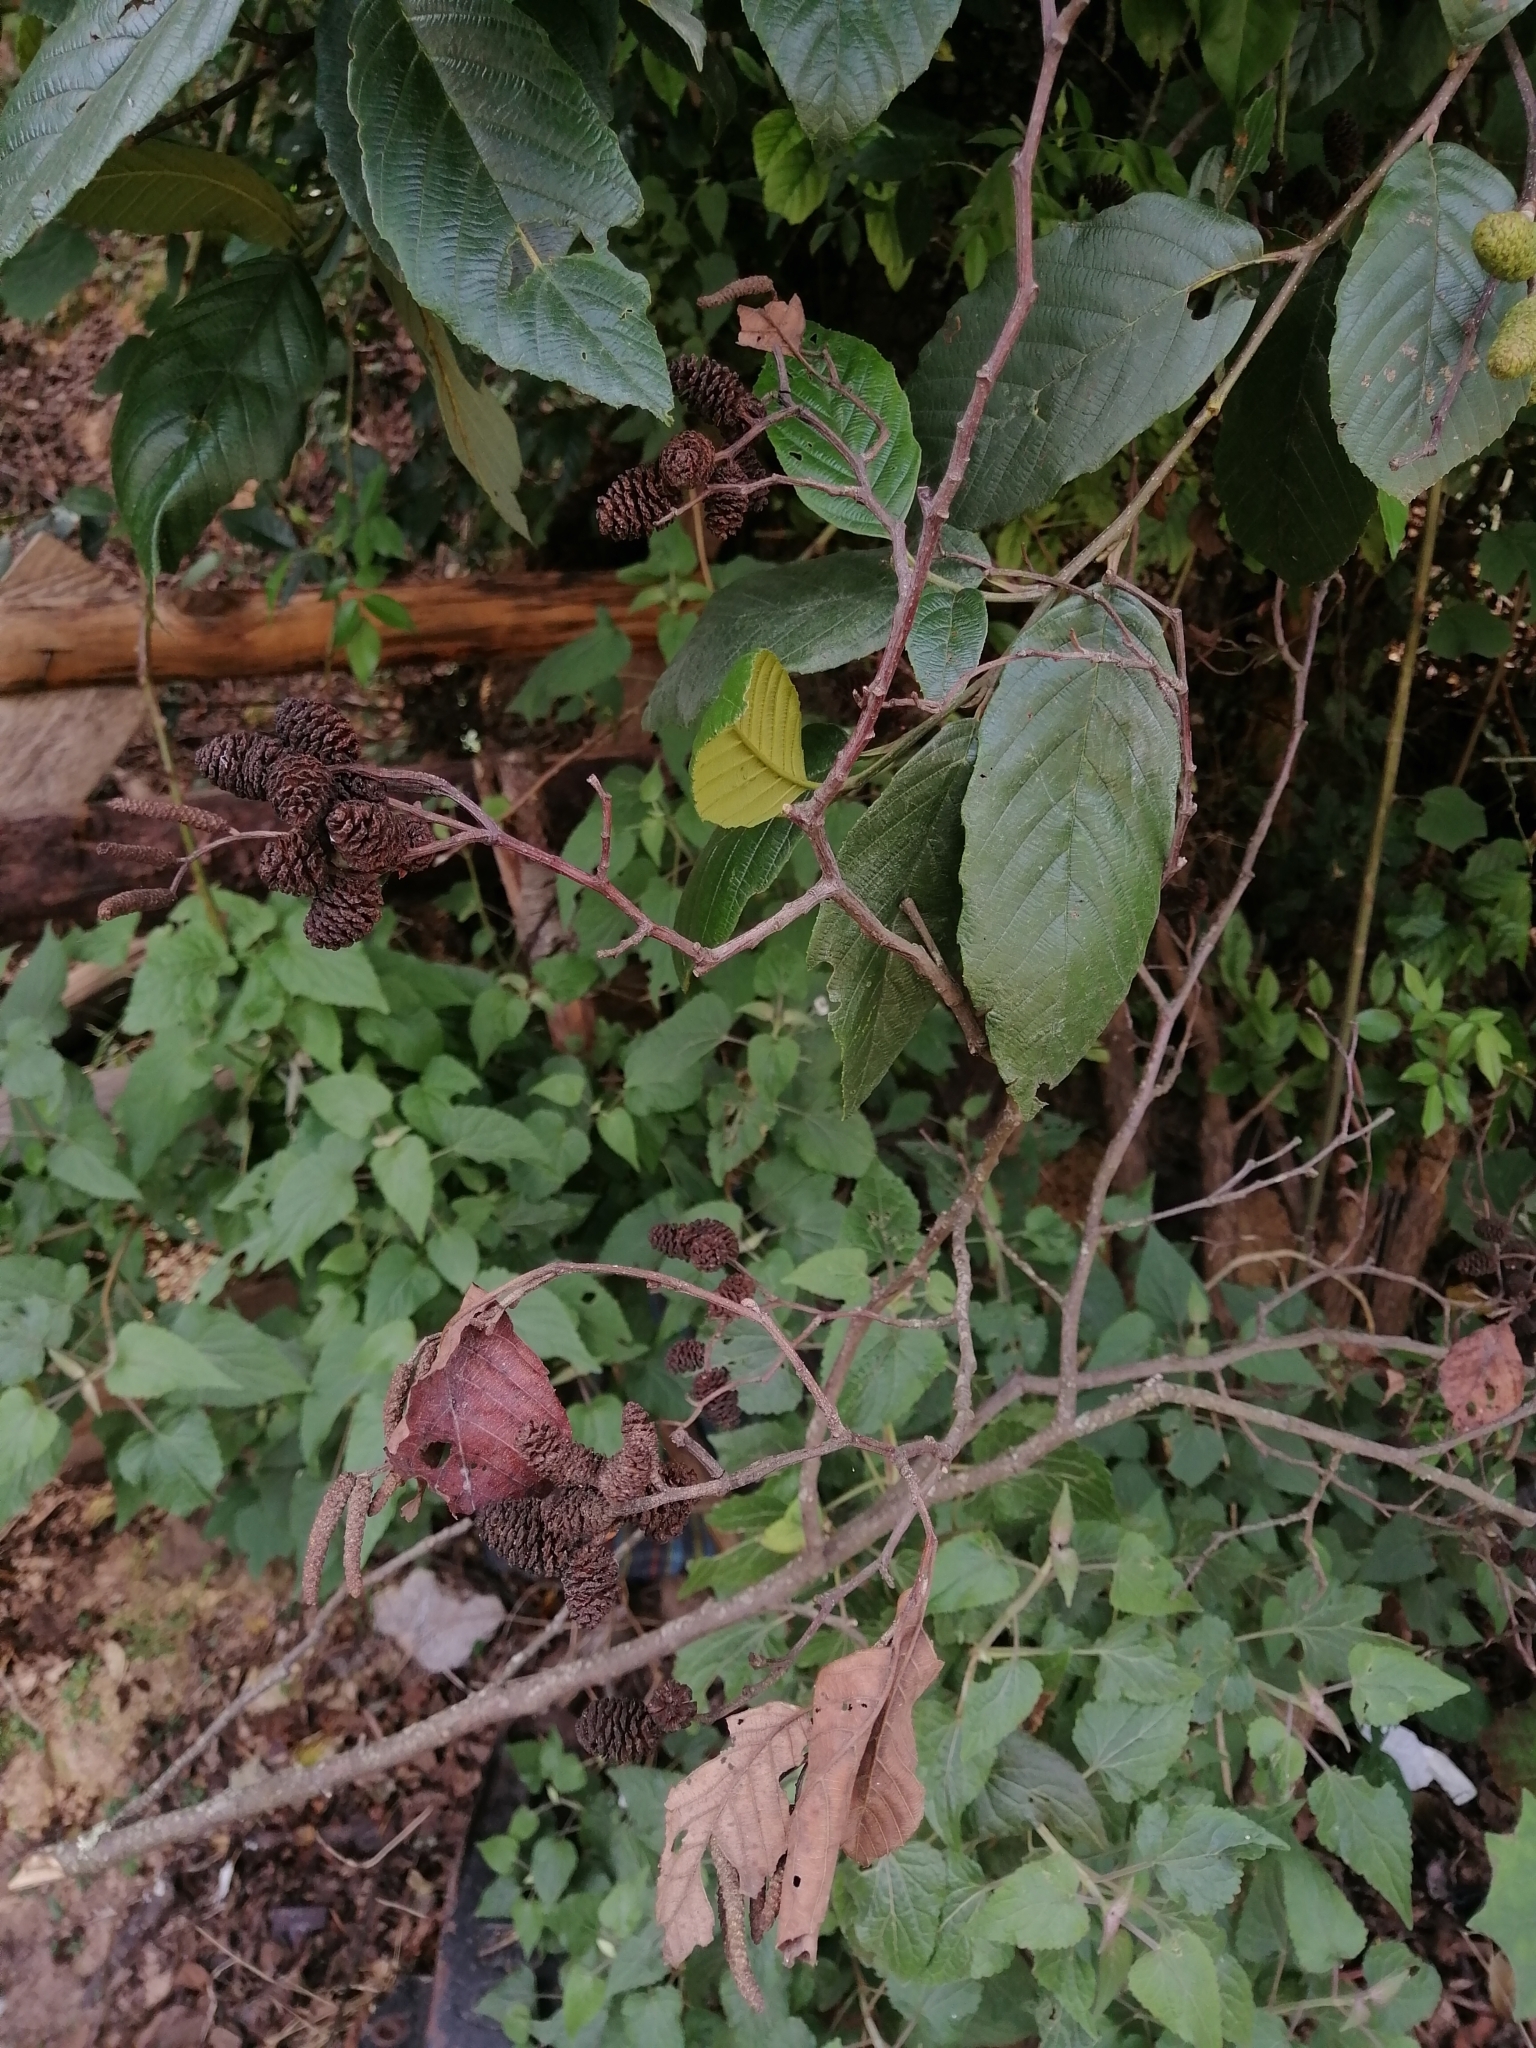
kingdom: Plantae
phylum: Tracheophyta
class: Magnoliopsida
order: Fagales
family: Betulaceae
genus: Alnus
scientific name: Alnus acuminata
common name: Alder
